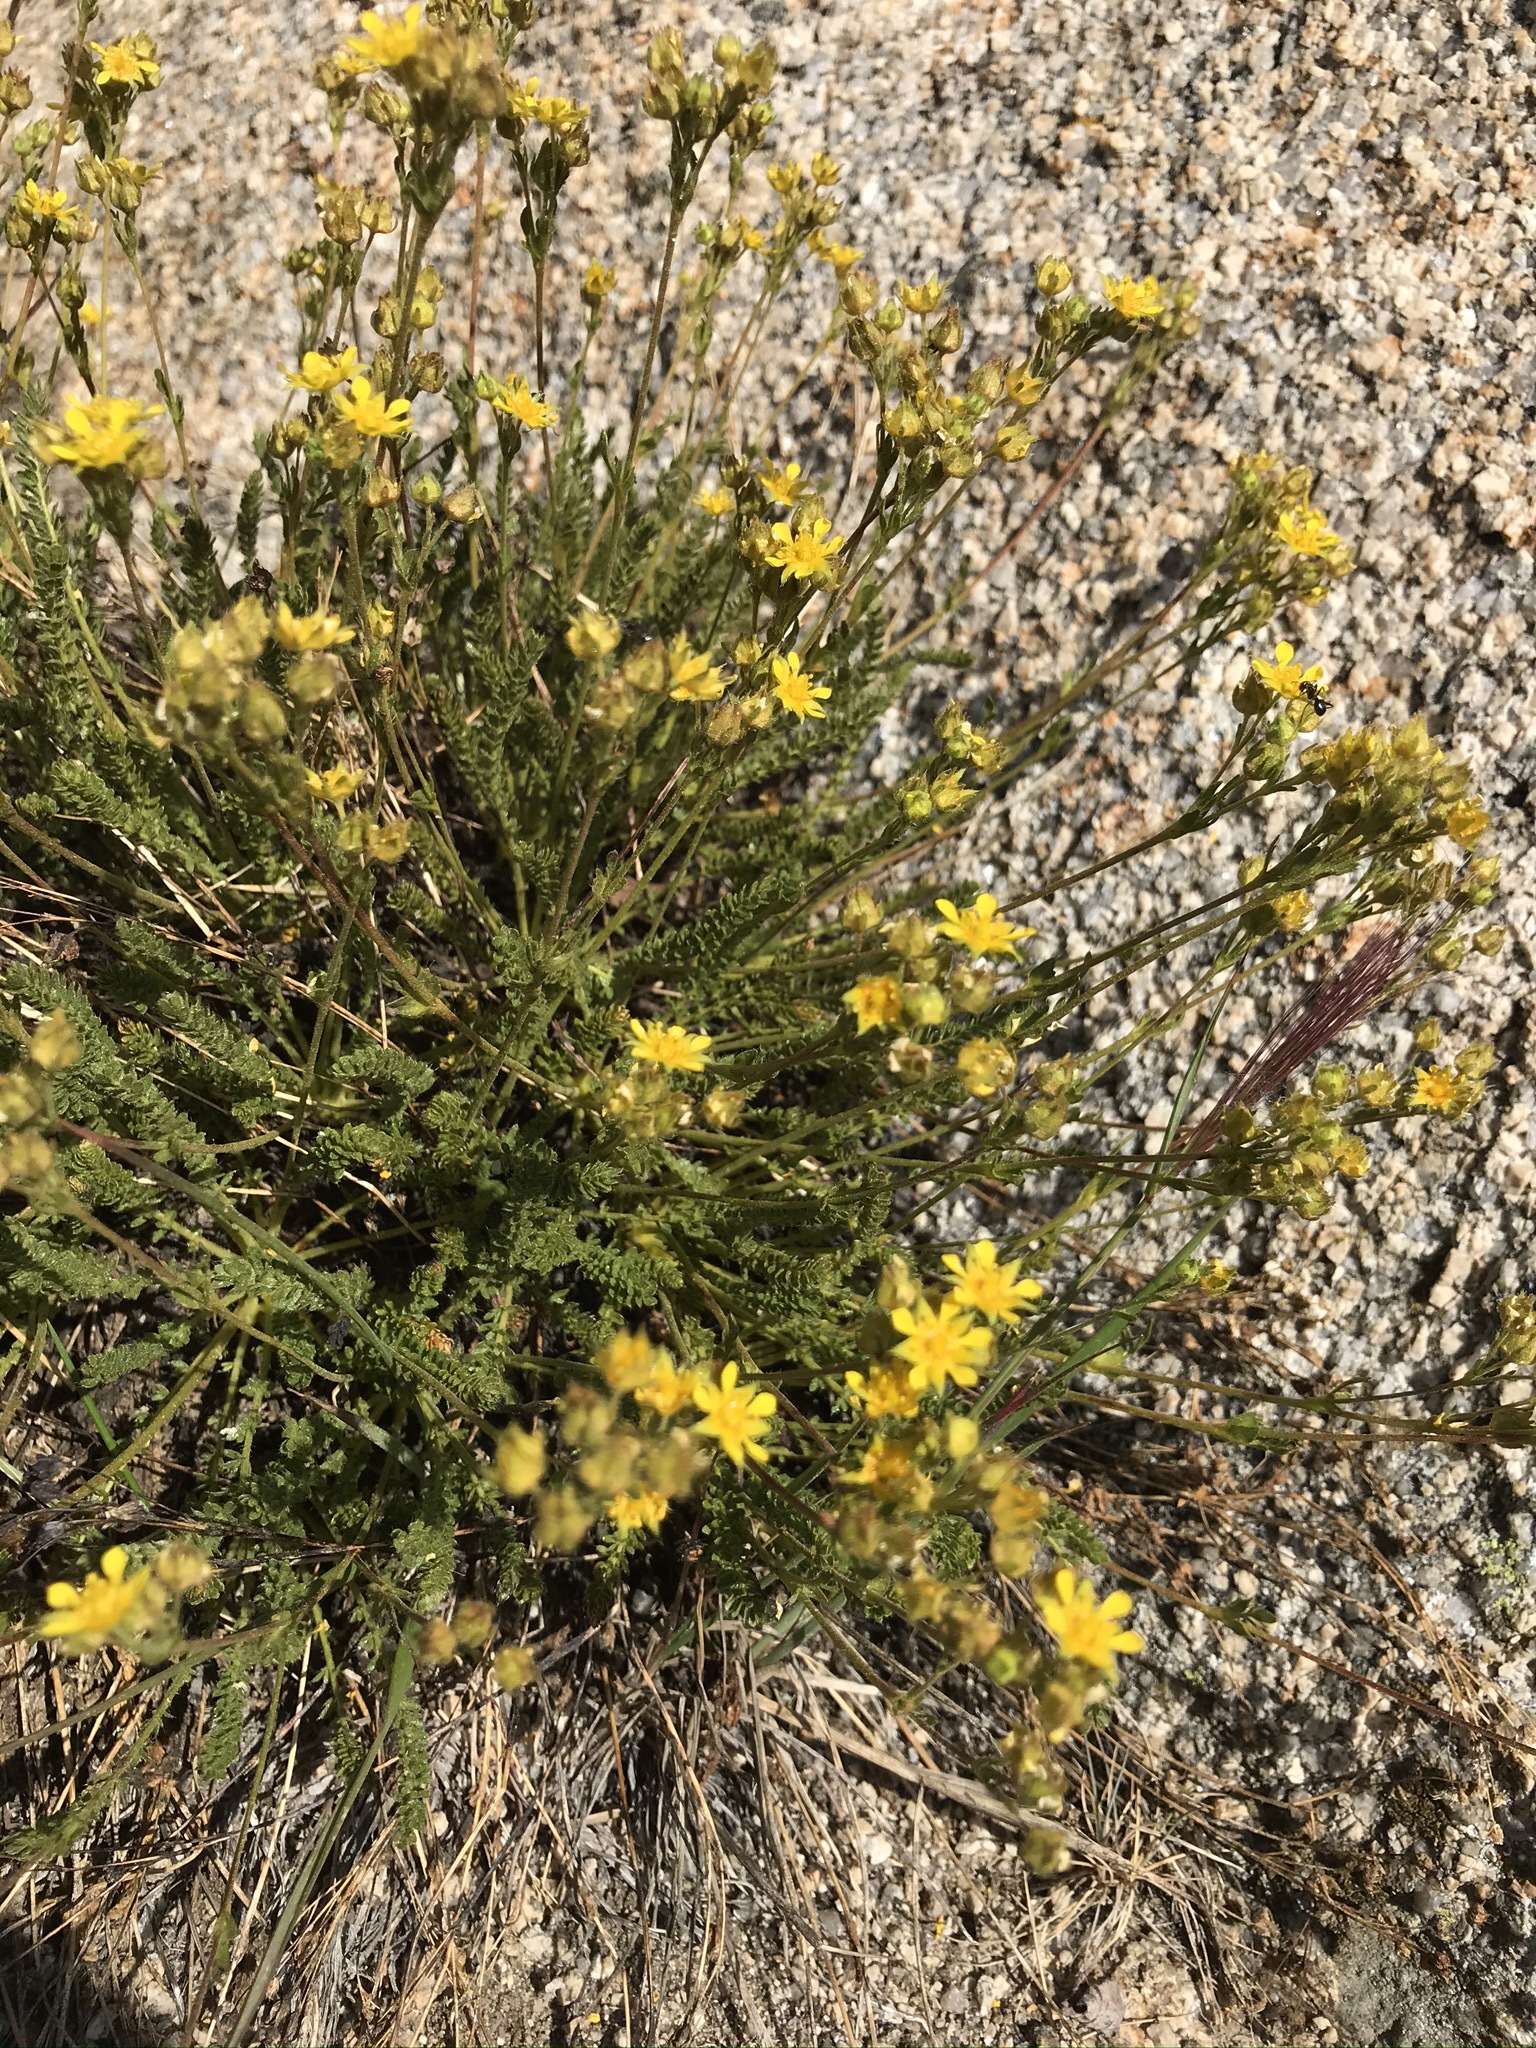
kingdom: Plantae
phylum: Tracheophyta
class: Magnoliopsida
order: Rosales
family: Rosaceae
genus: Potentilla
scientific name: Potentilla lycopodioides
